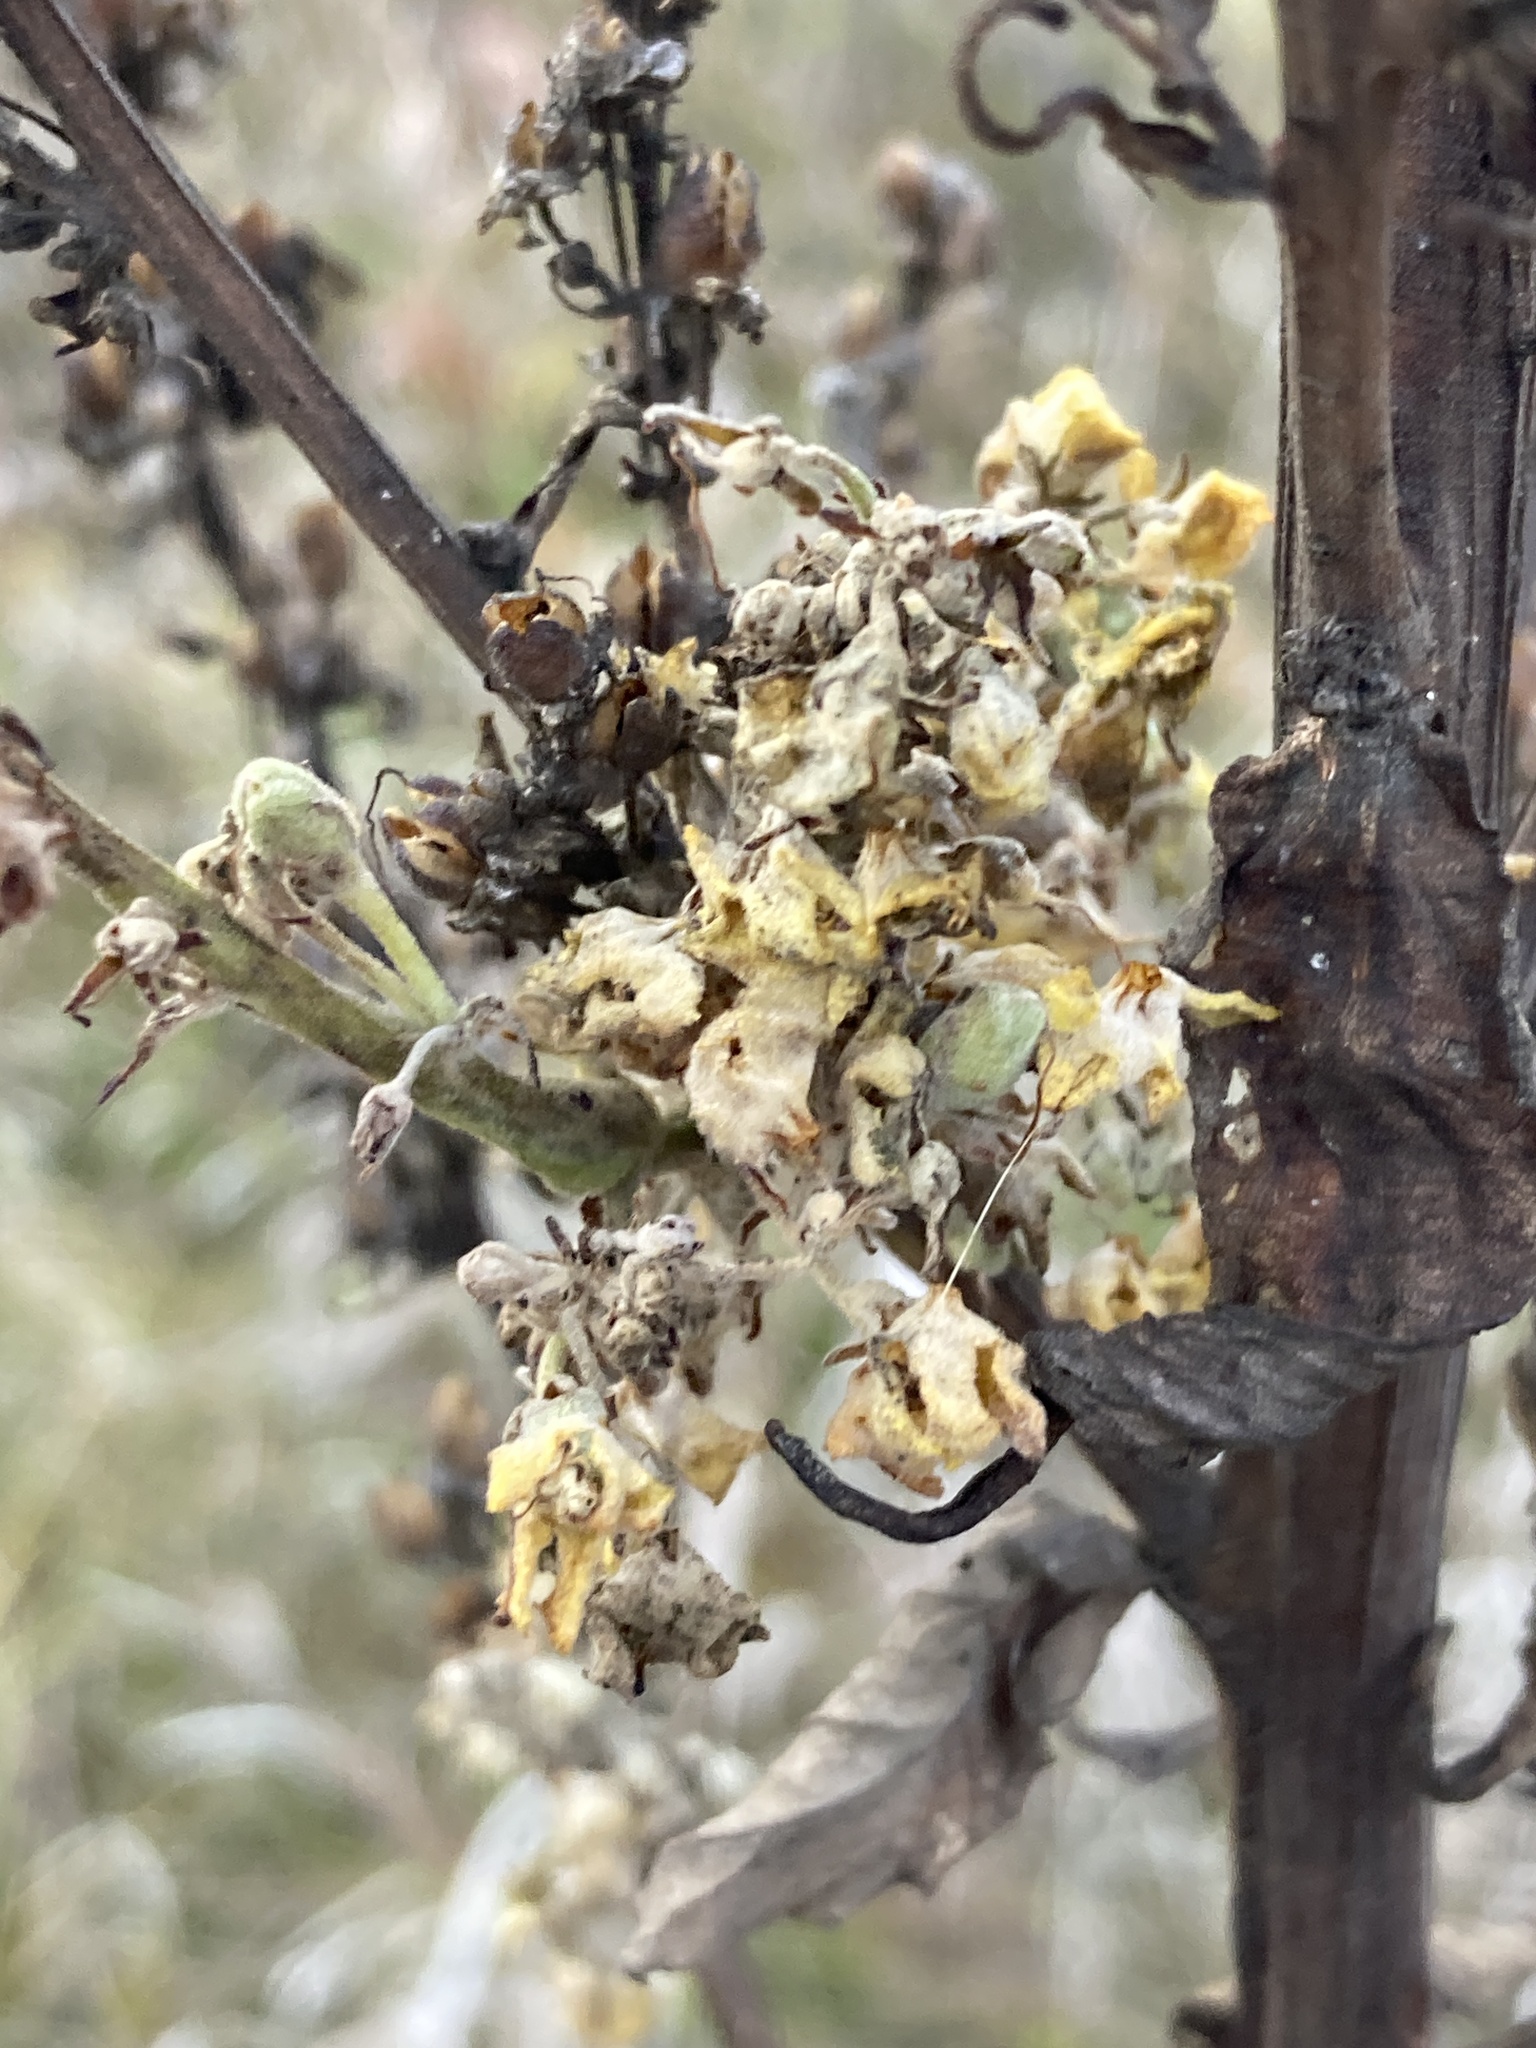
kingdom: Plantae
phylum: Tracheophyta
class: Magnoliopsida
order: Lamiales
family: Scrophulariaceae
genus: Verbascum
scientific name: Verbascum lychnitis
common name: White mullein
